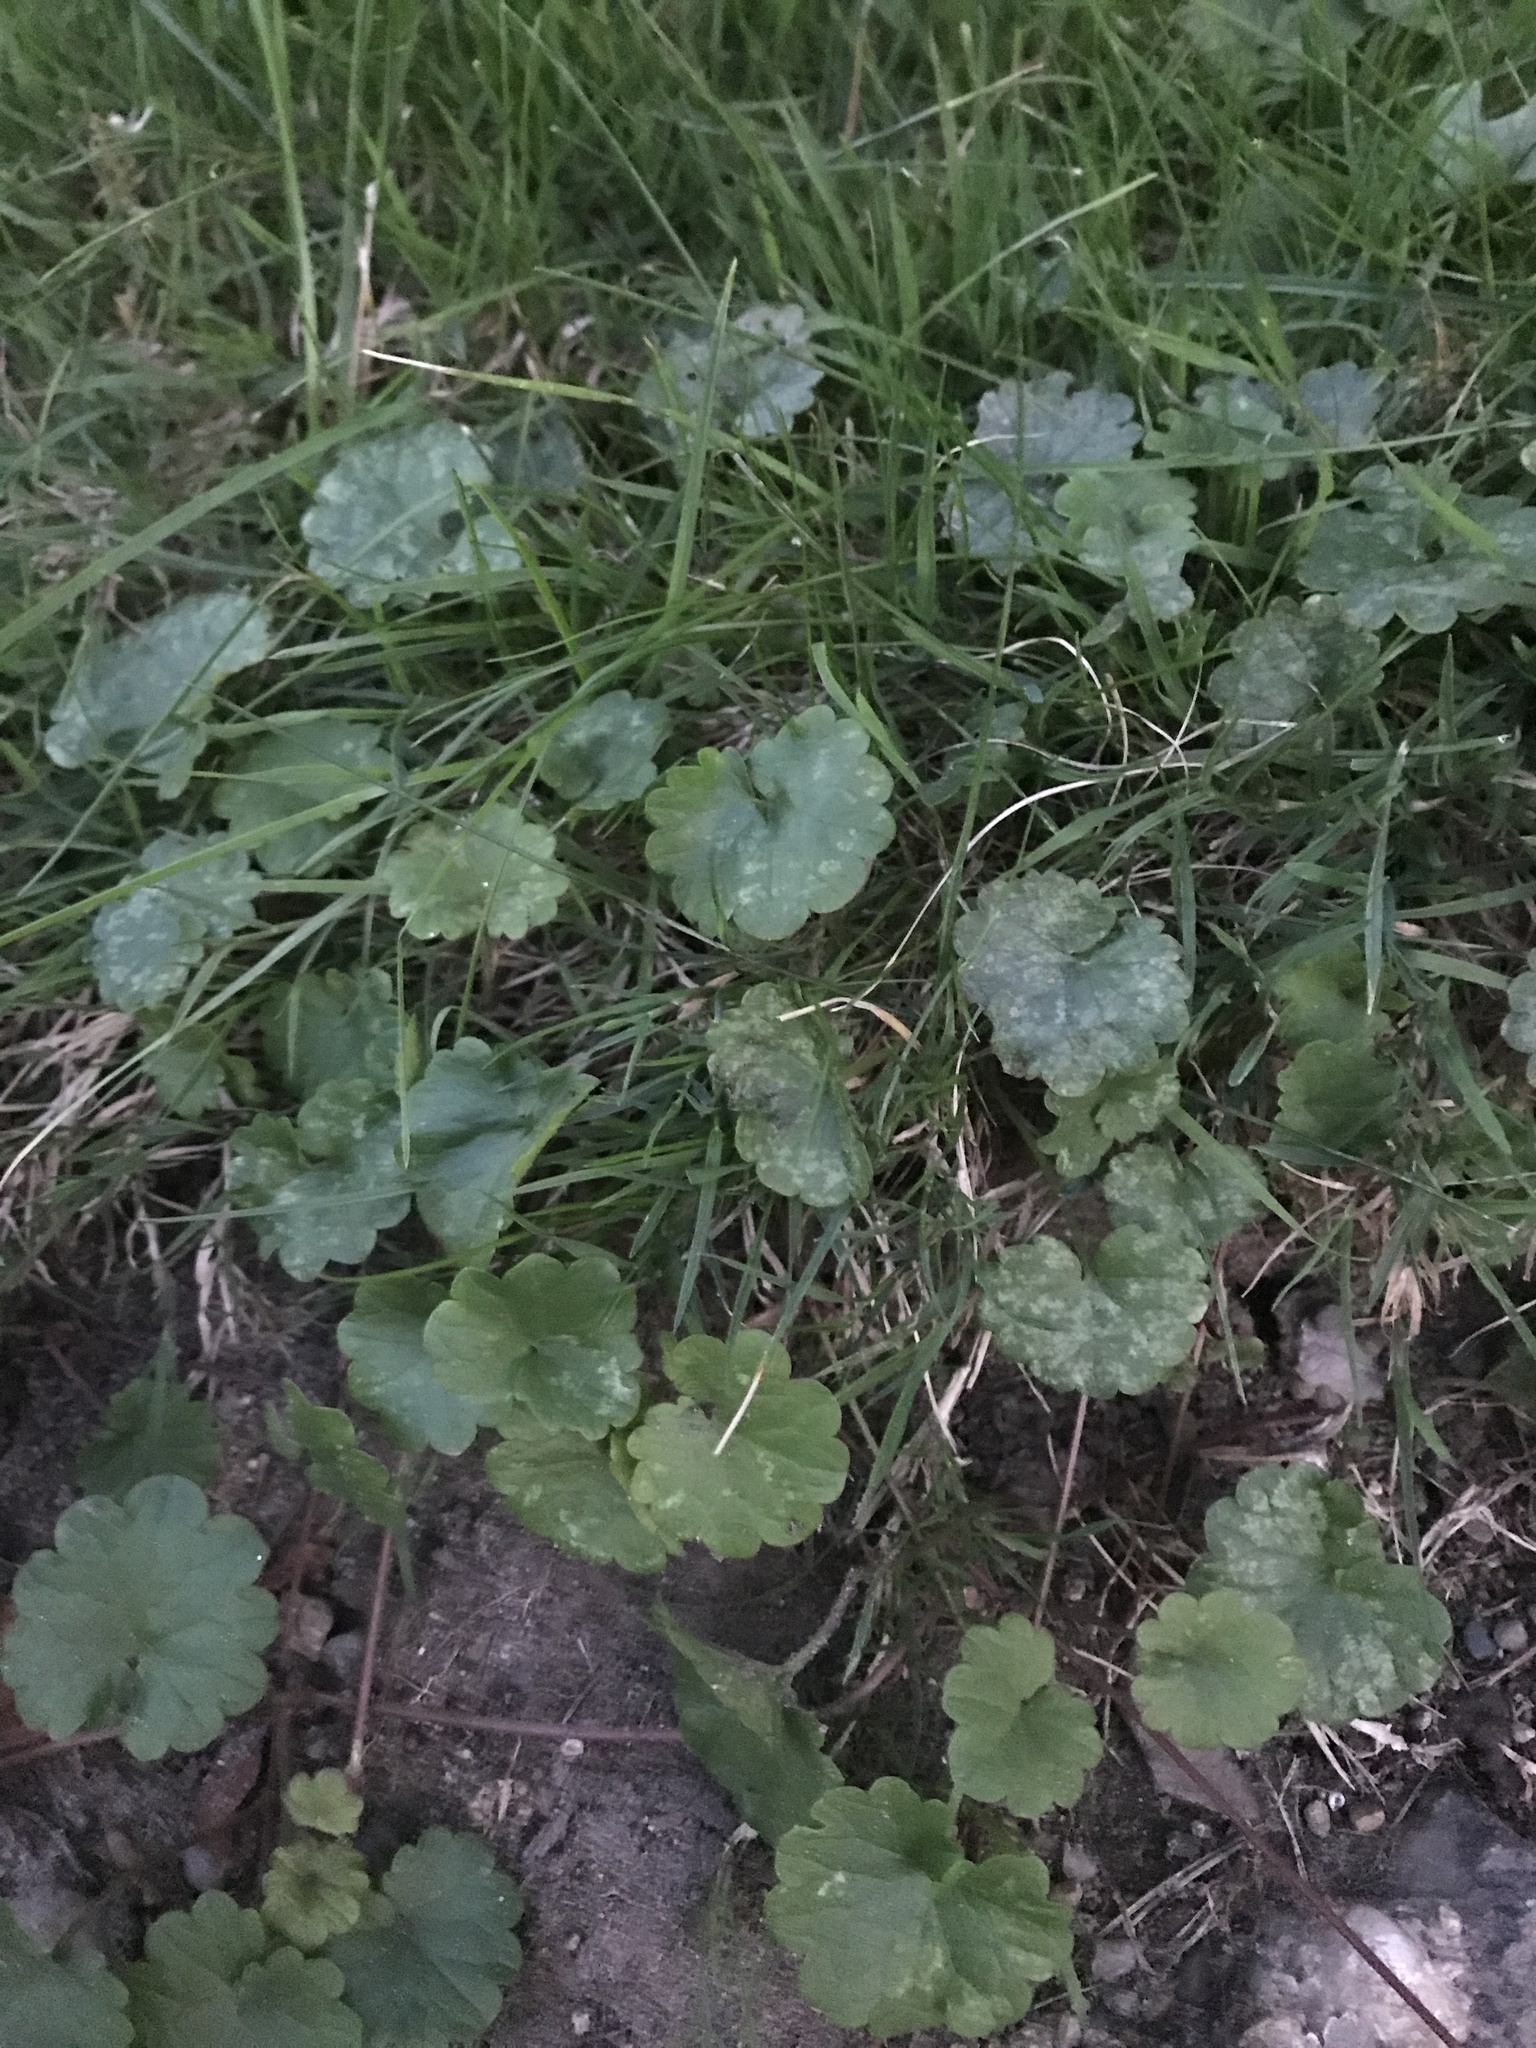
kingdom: Plantae
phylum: Tracheophyta
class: Magnoliopsida
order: Lamiales
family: Lamiaceae
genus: Glechoma
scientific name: Glechoma hederacea
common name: Ground ivy
